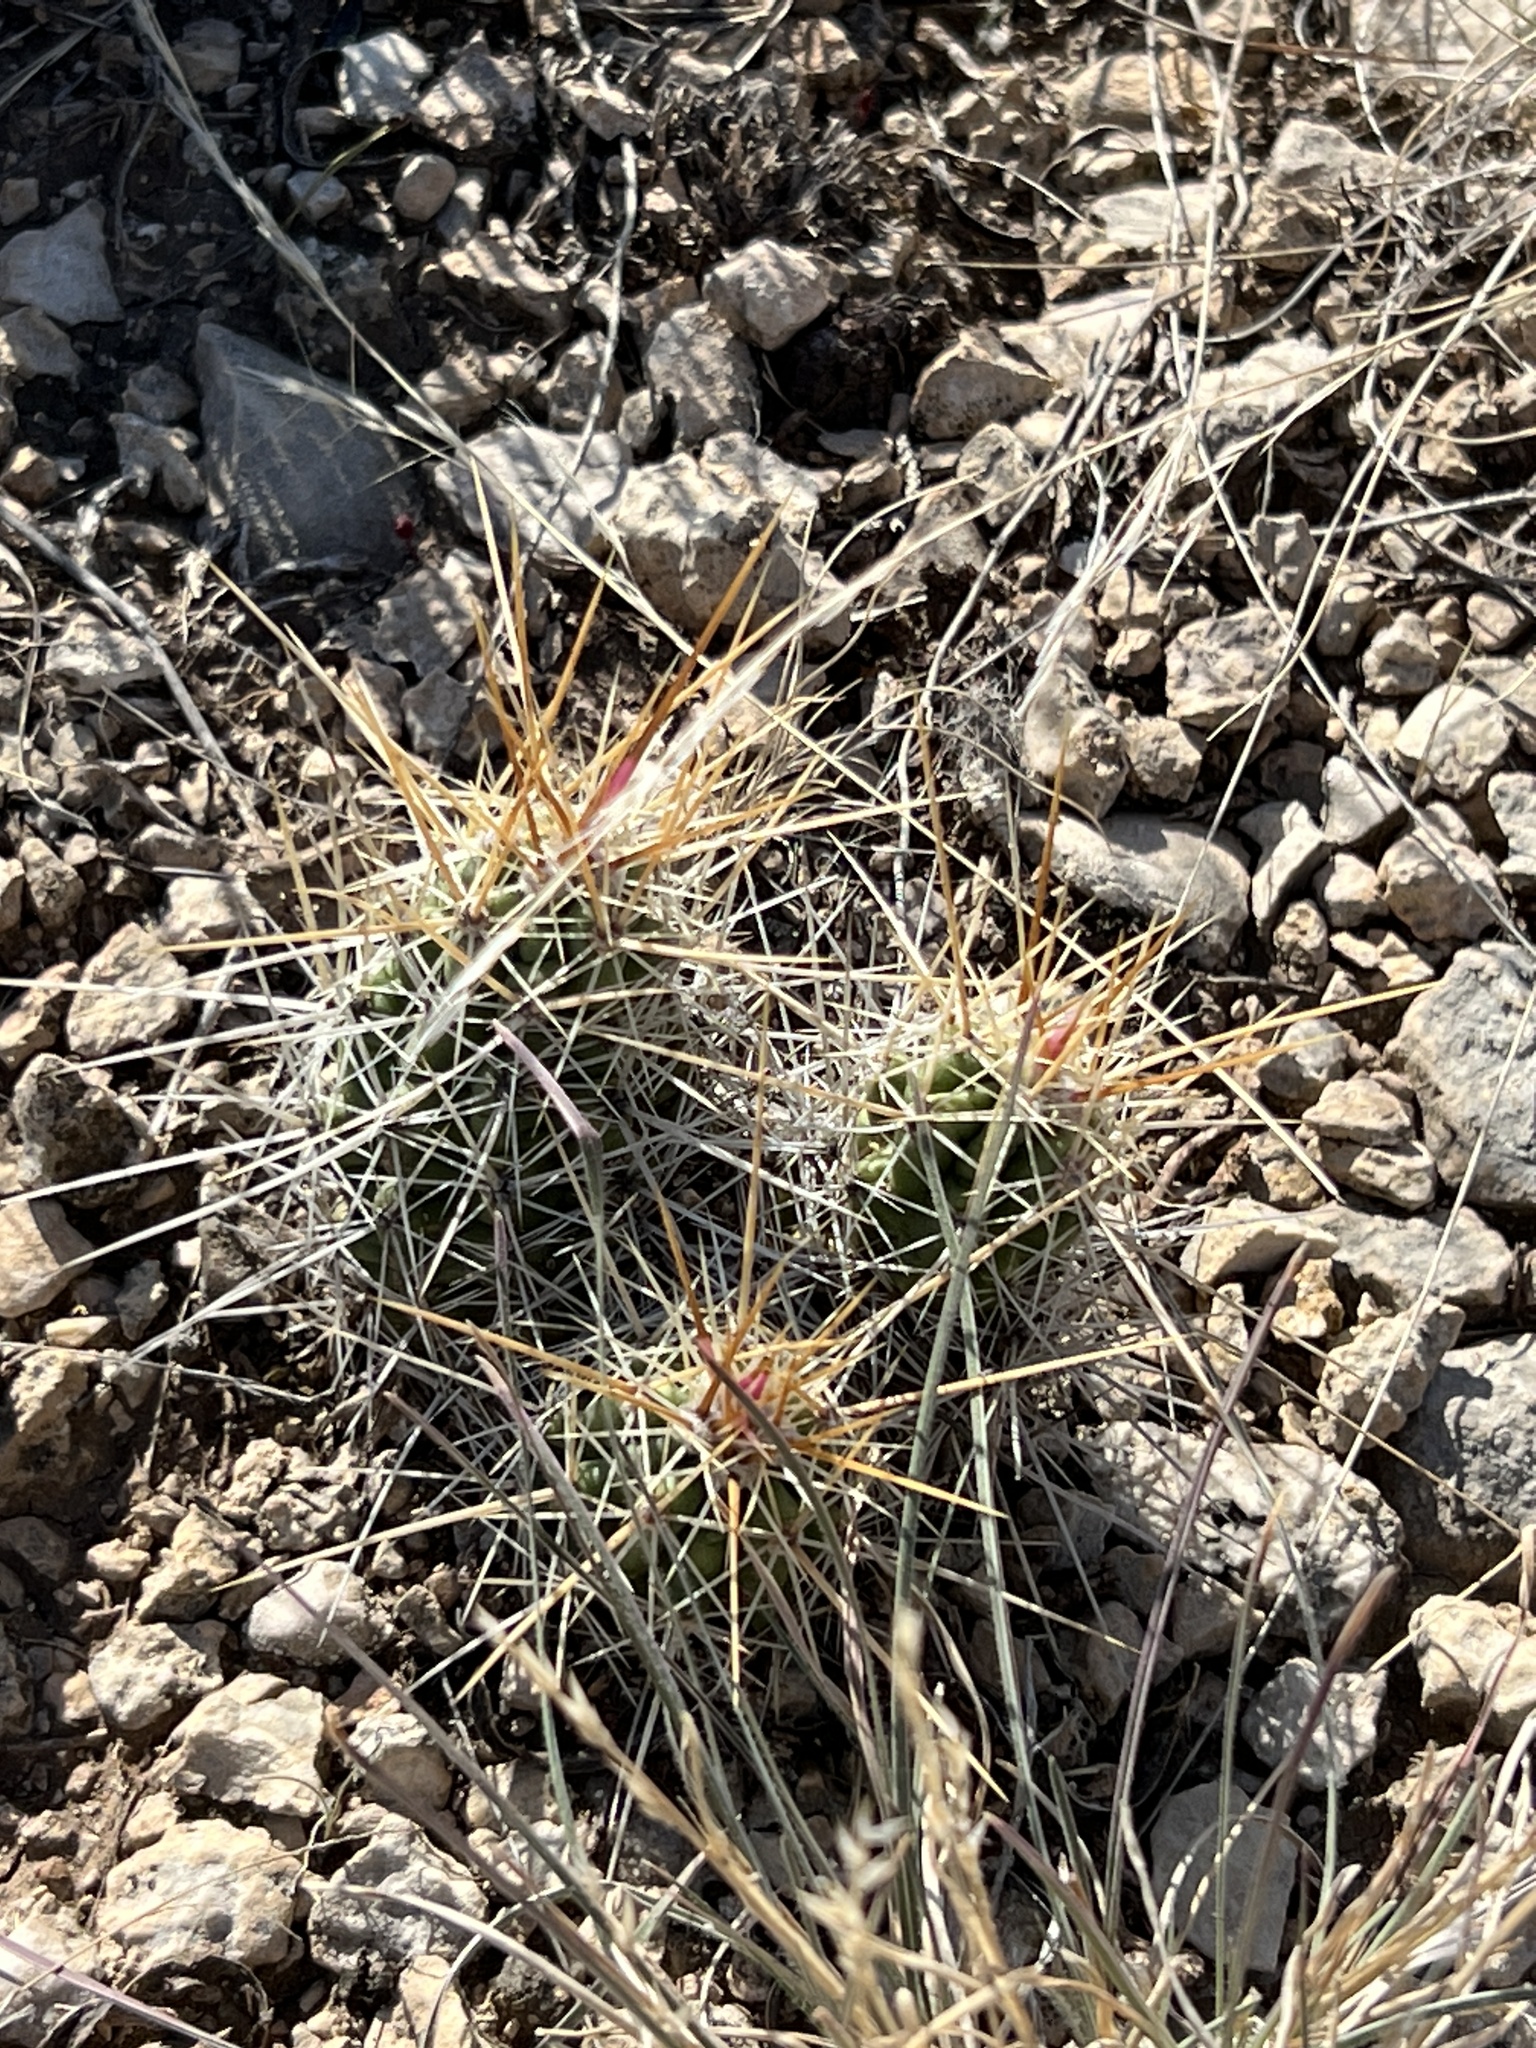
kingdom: Plantae
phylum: Tracheophyta
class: Magnoliopsida
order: Caryophyllales
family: Cactaceae
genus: Echinocereus
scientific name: Echinocereus enneacanthus
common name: Pitaya
